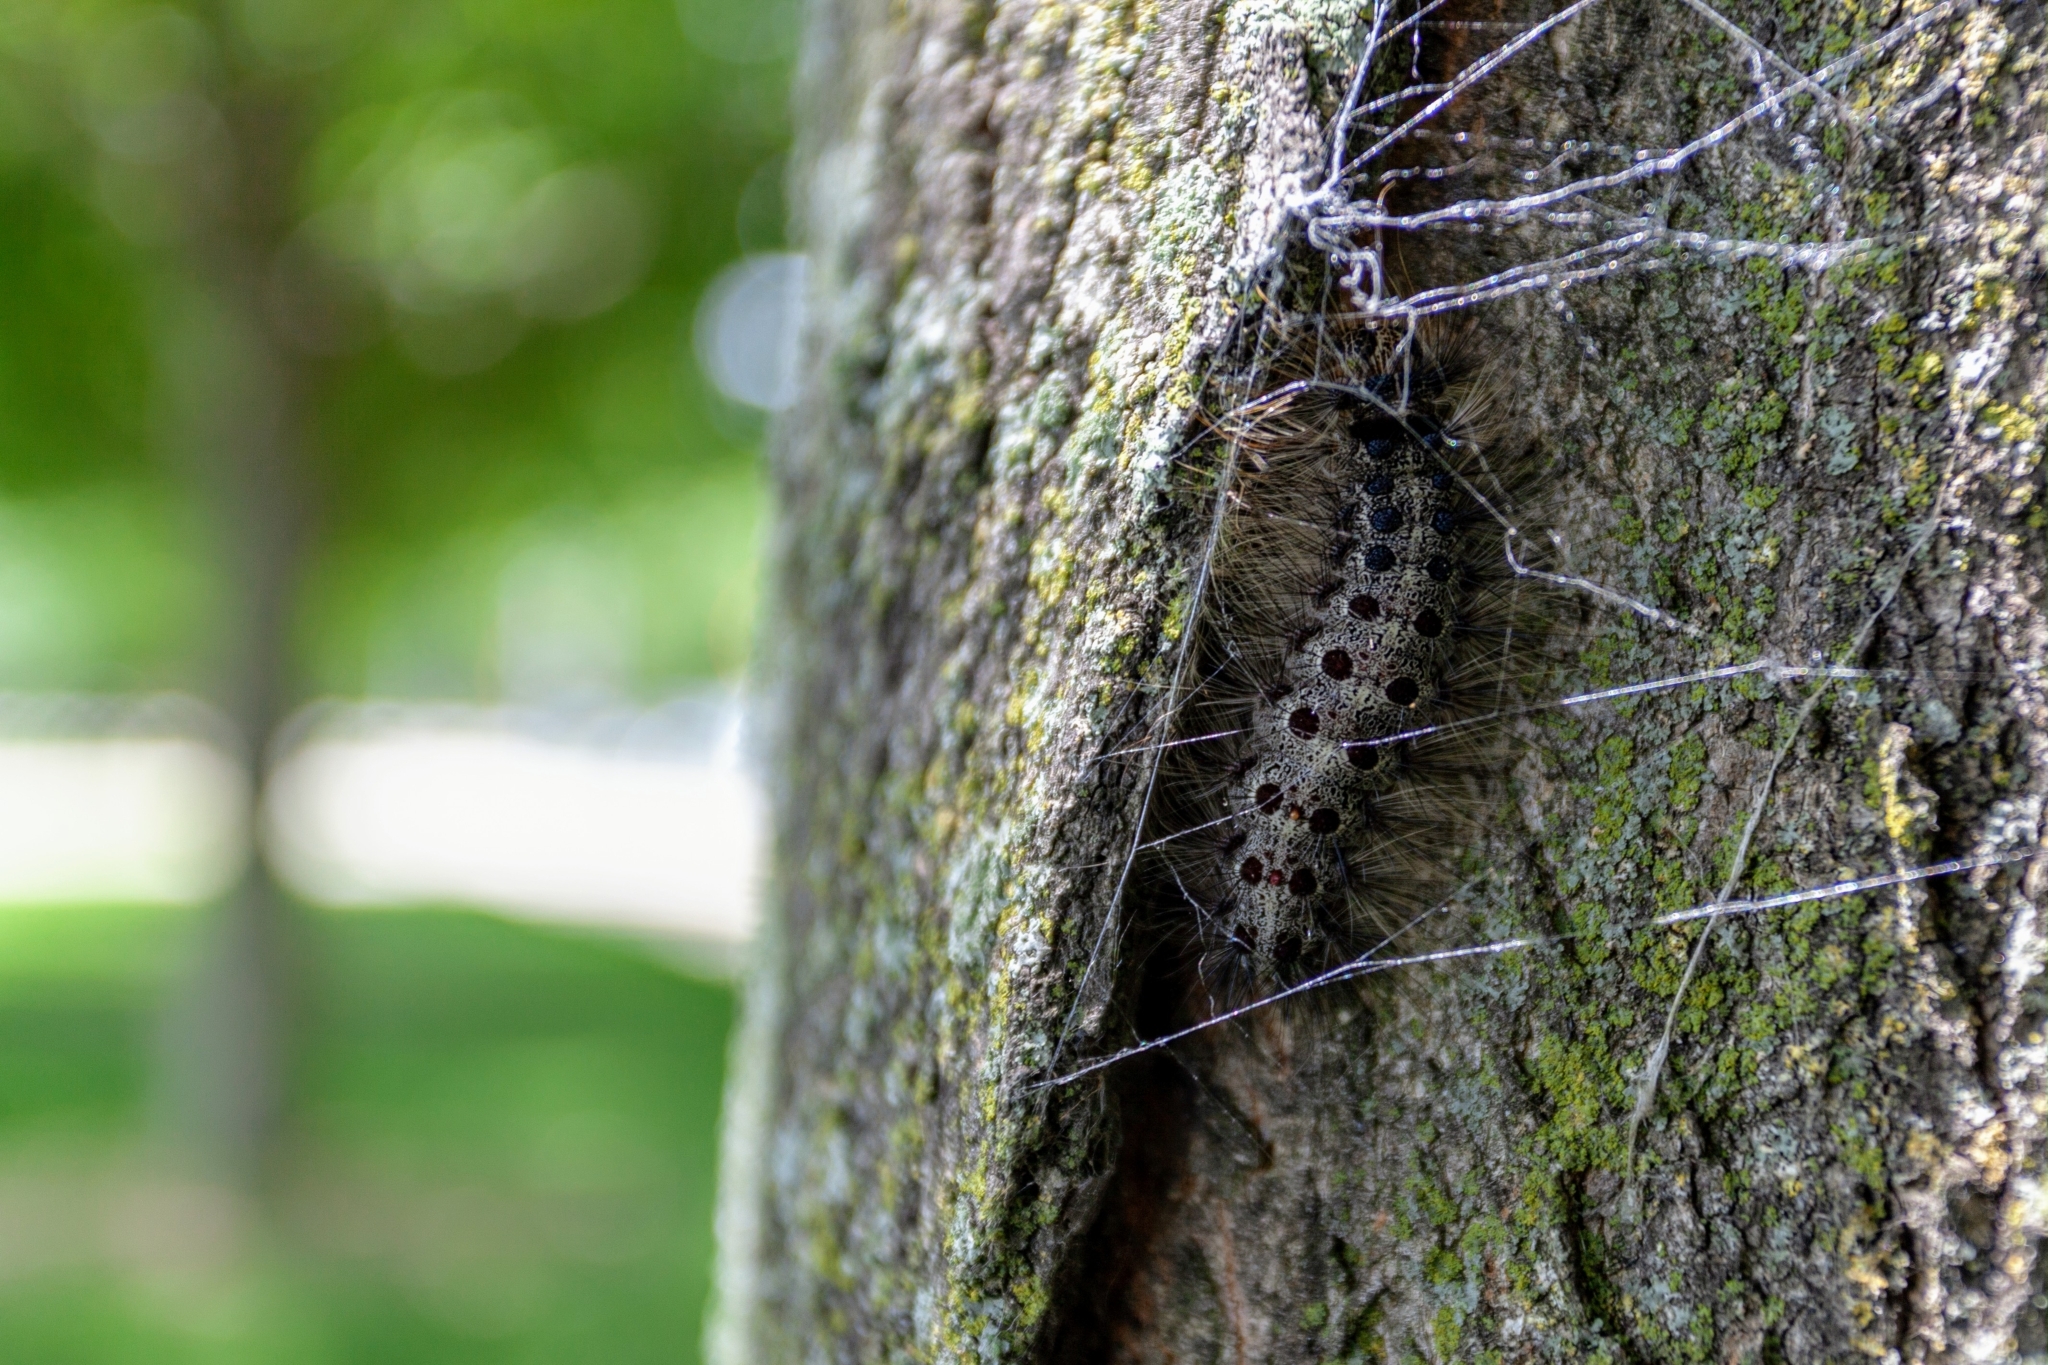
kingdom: Animalia
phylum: Arthropoda
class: Insecta
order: Lepidoptera
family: Erebidae
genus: Lymantria
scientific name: Lymantria dispar
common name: Gypsy moth
